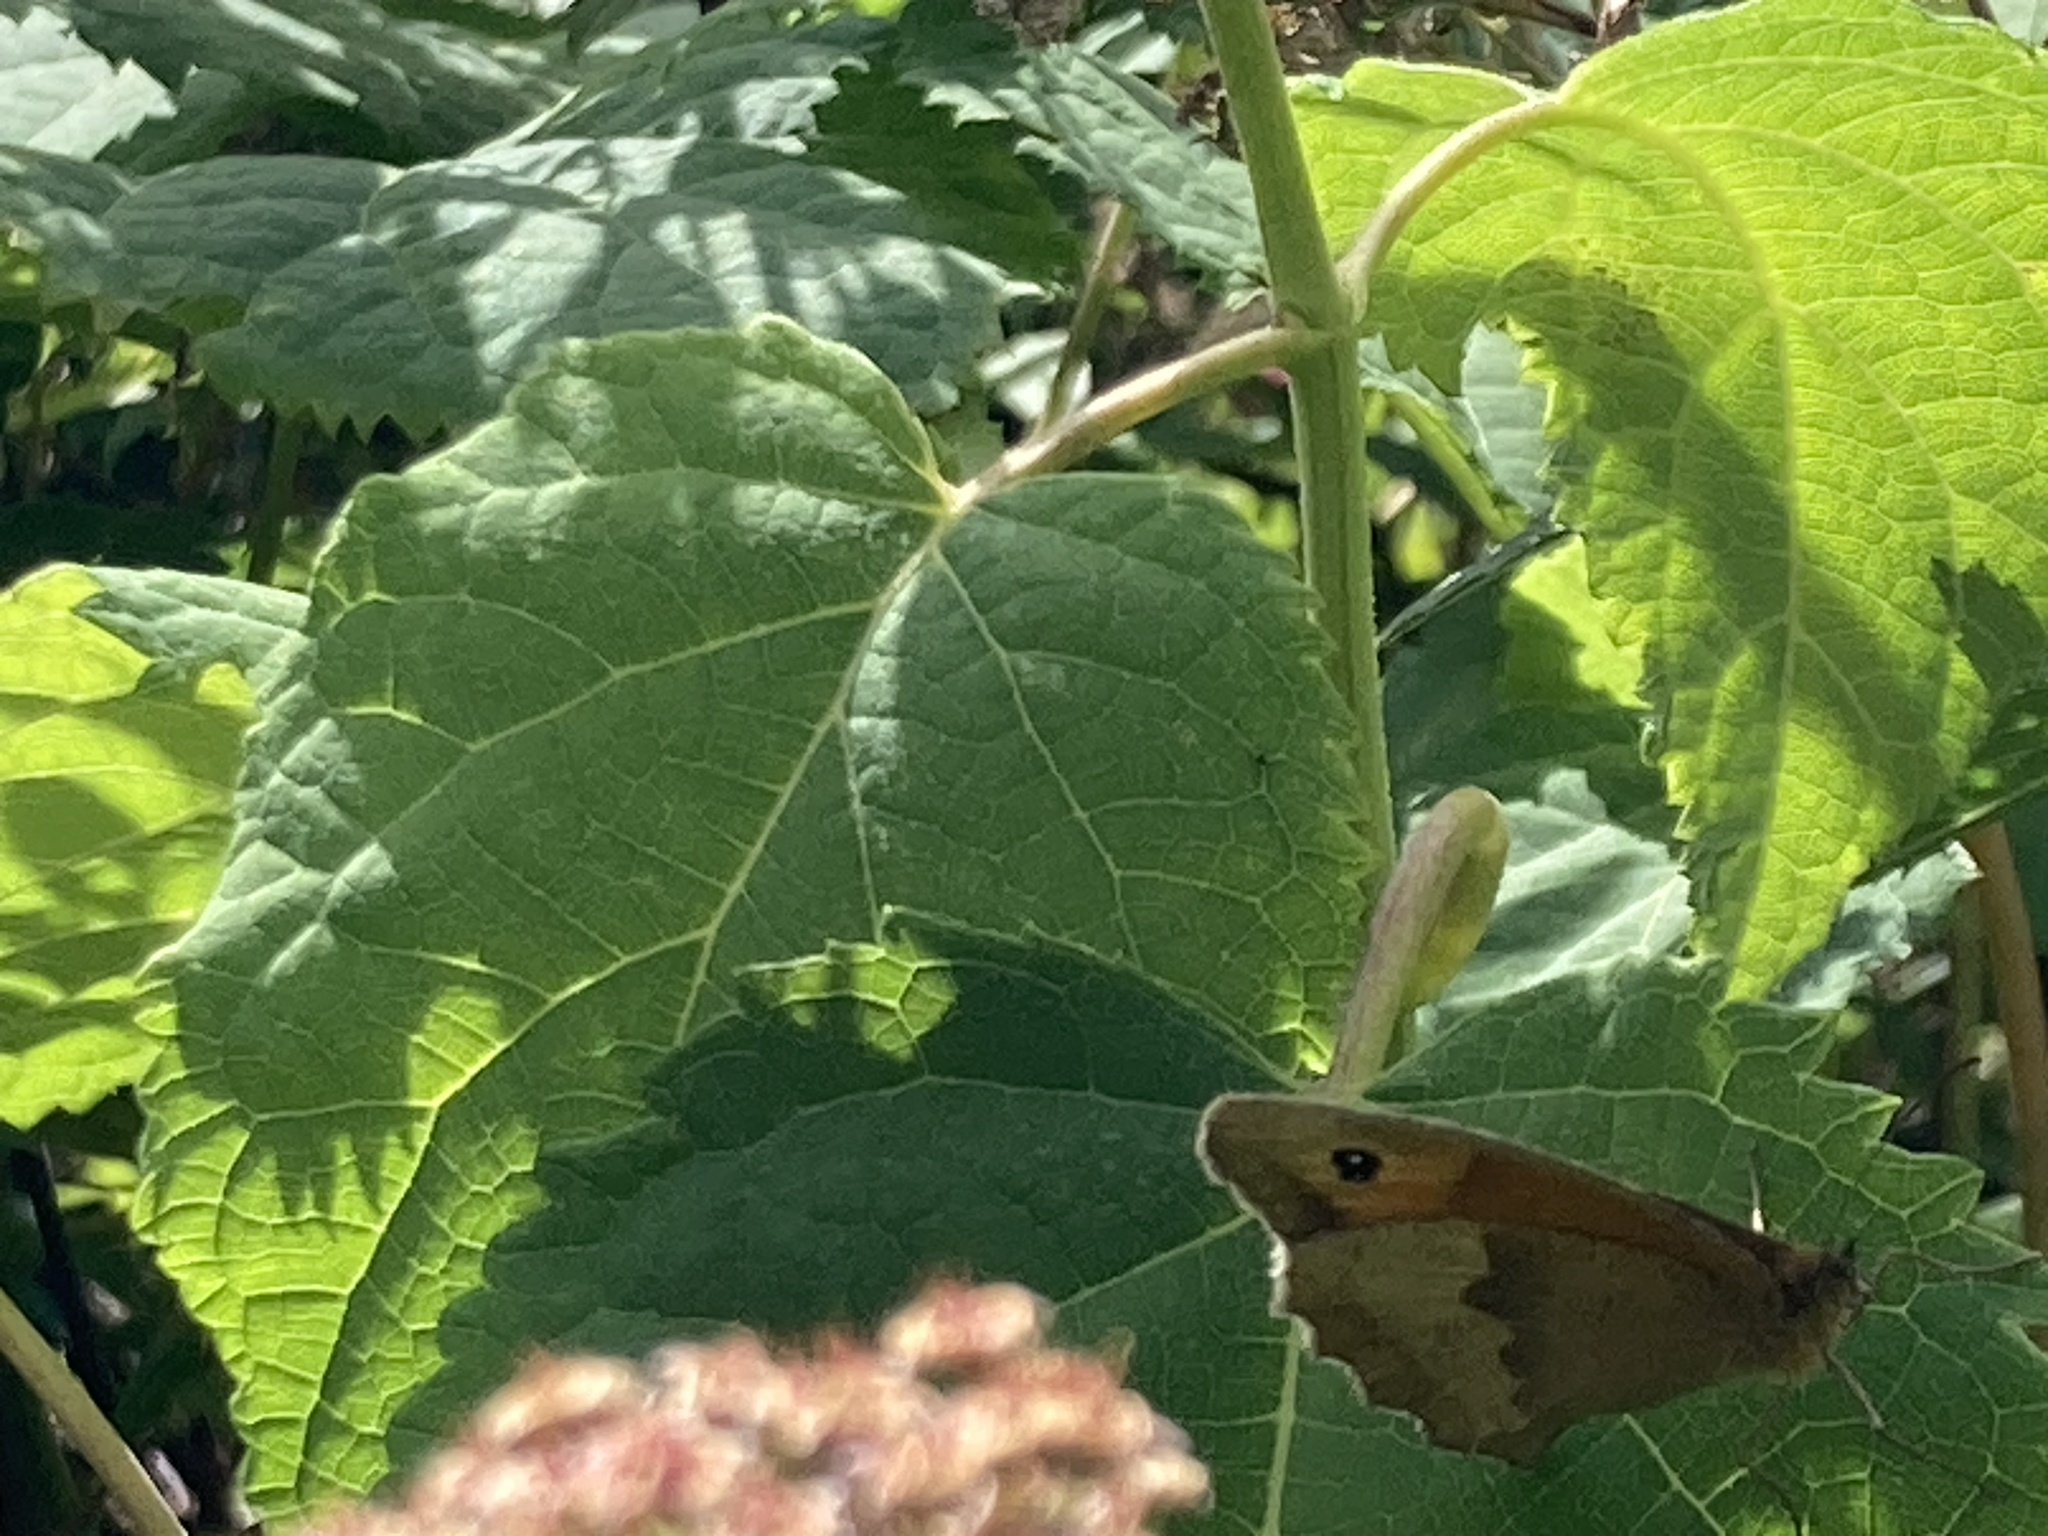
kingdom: Animalia
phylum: Arthropoda
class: Insecta
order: Lepidoptera
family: Nymphalidae
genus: Maniola
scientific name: Maniola jurtina
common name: Meadow brown
